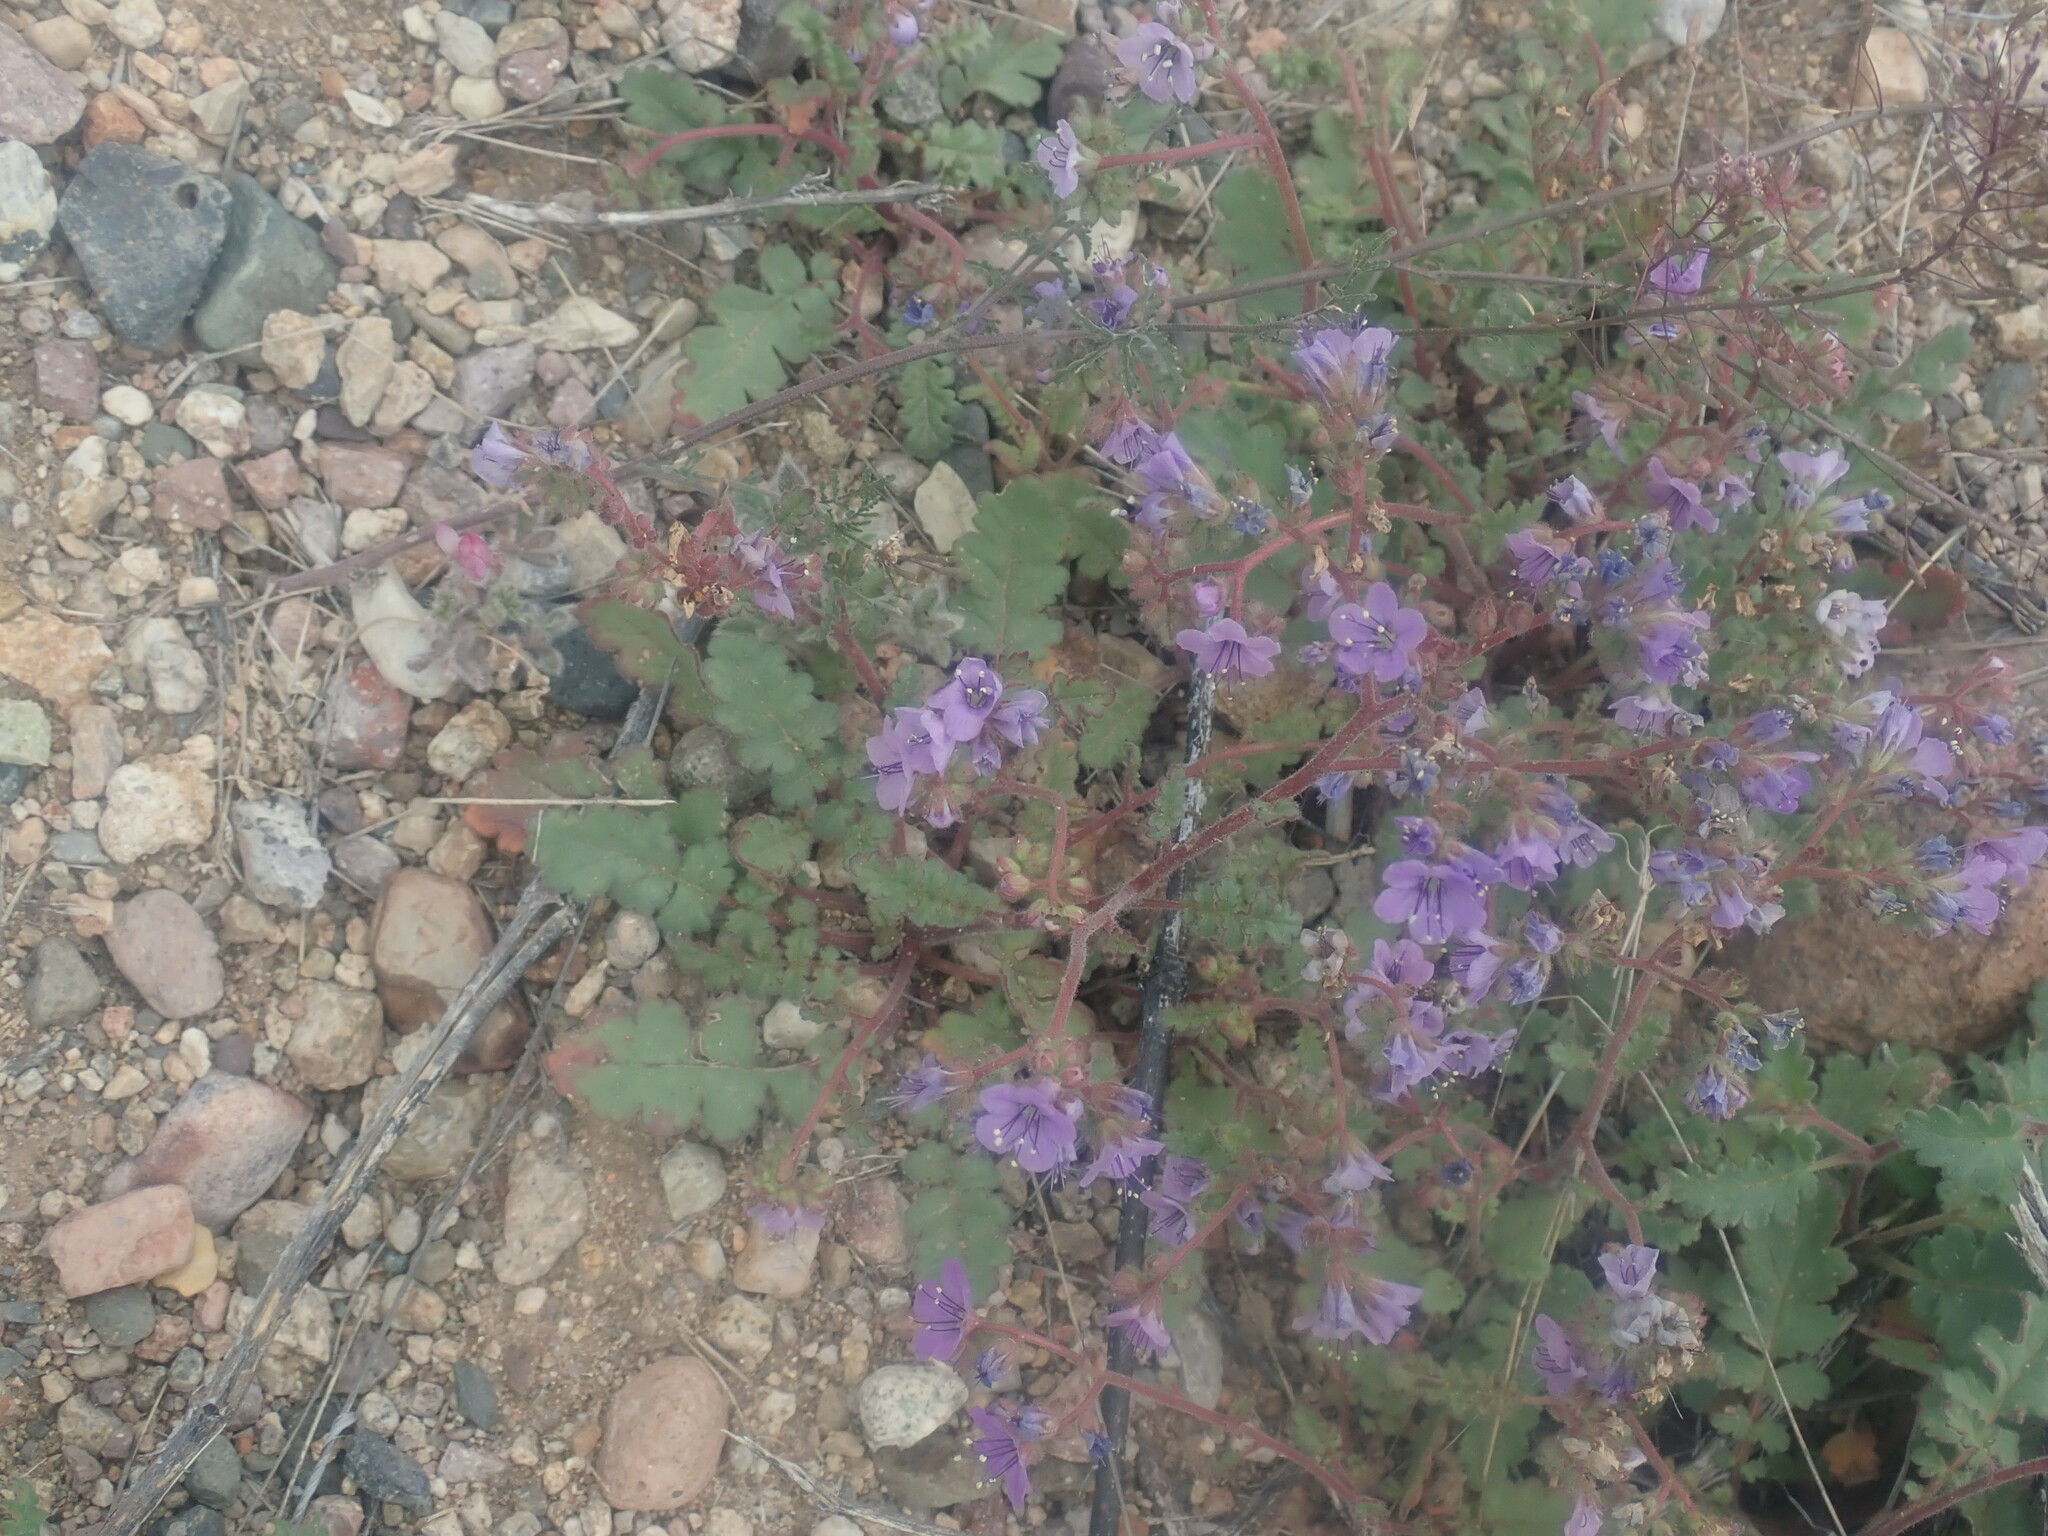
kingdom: Plantae
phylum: Tracheophyta
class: Magnoliopsida
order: Boraginales
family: Hydrophyllaceae
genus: Phacelia
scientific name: Phacelia arizonica
